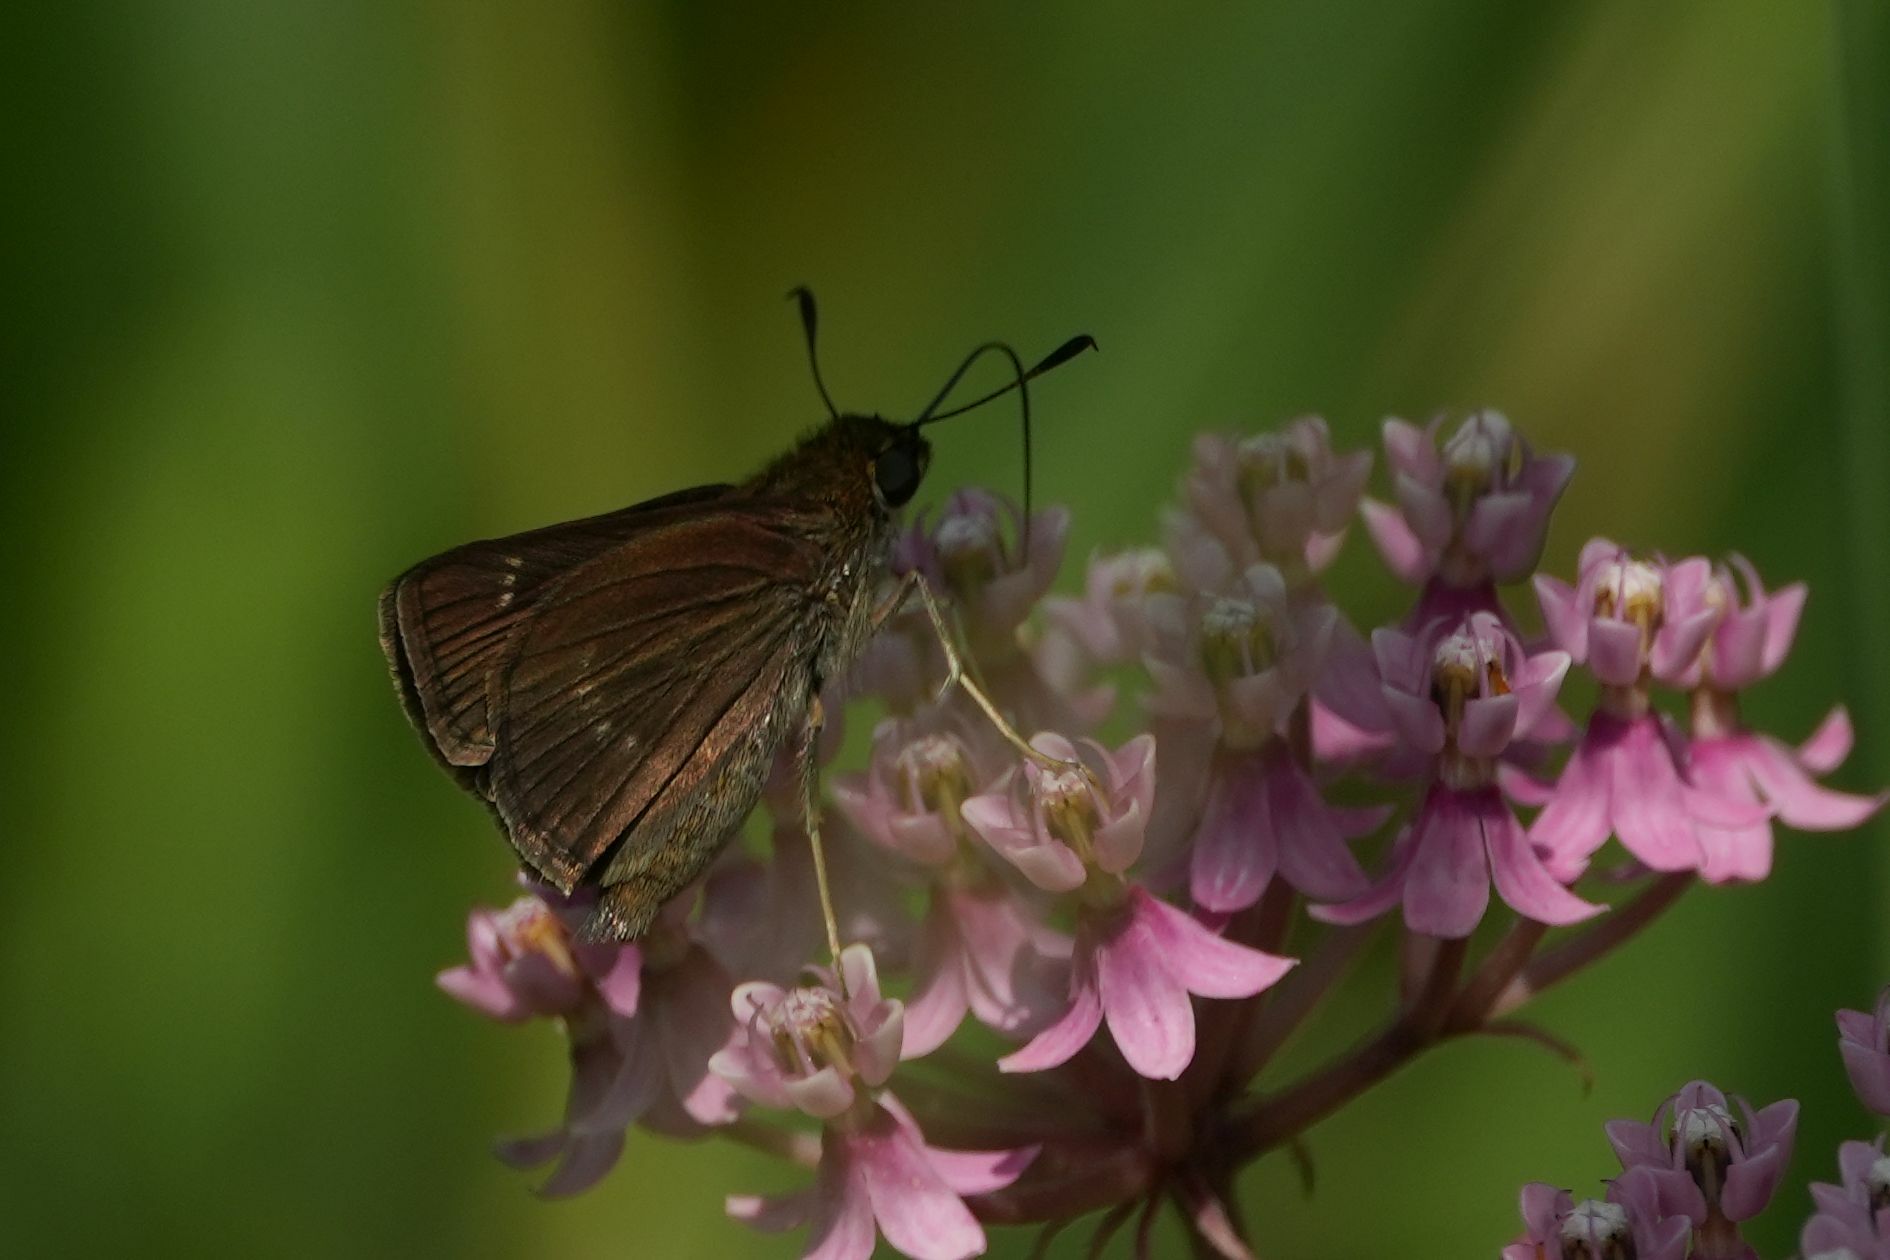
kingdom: Animalia
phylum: Arthropoda
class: Insecta
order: Lepidoptera
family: Hesperiidae
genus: Euphyes
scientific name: Euphyes vestris
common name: Dun skipper
